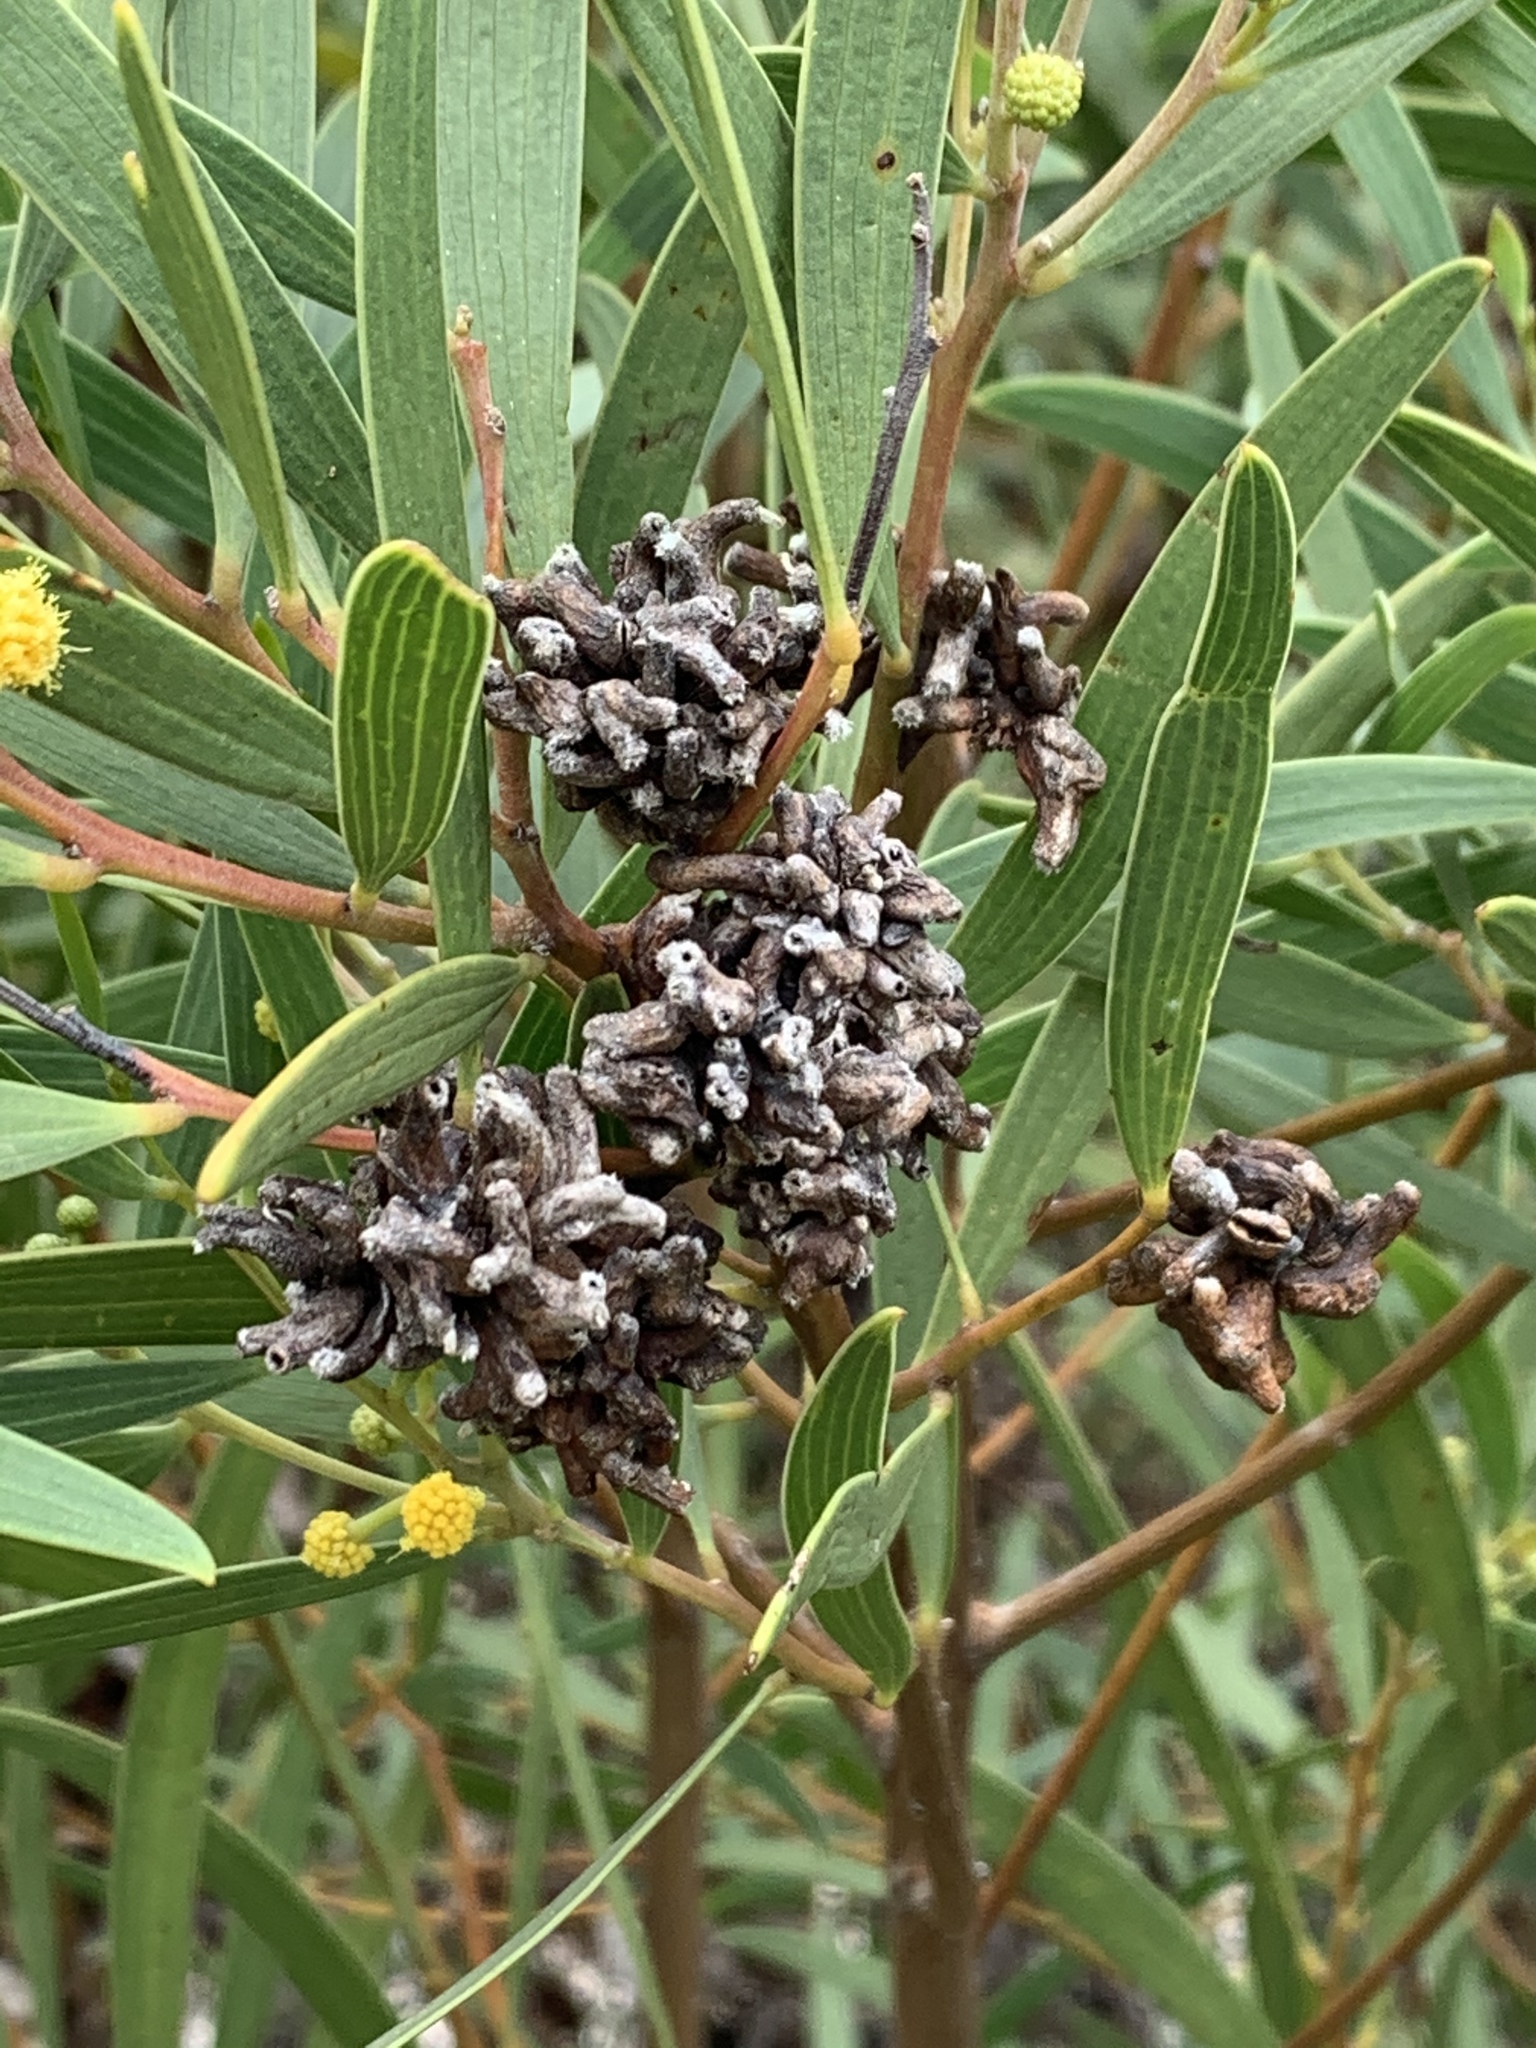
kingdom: Animalia
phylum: Arthropoda
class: Insecta
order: Diptera
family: Cecidomyiidae
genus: Dasineura
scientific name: Dasineura dielsi
